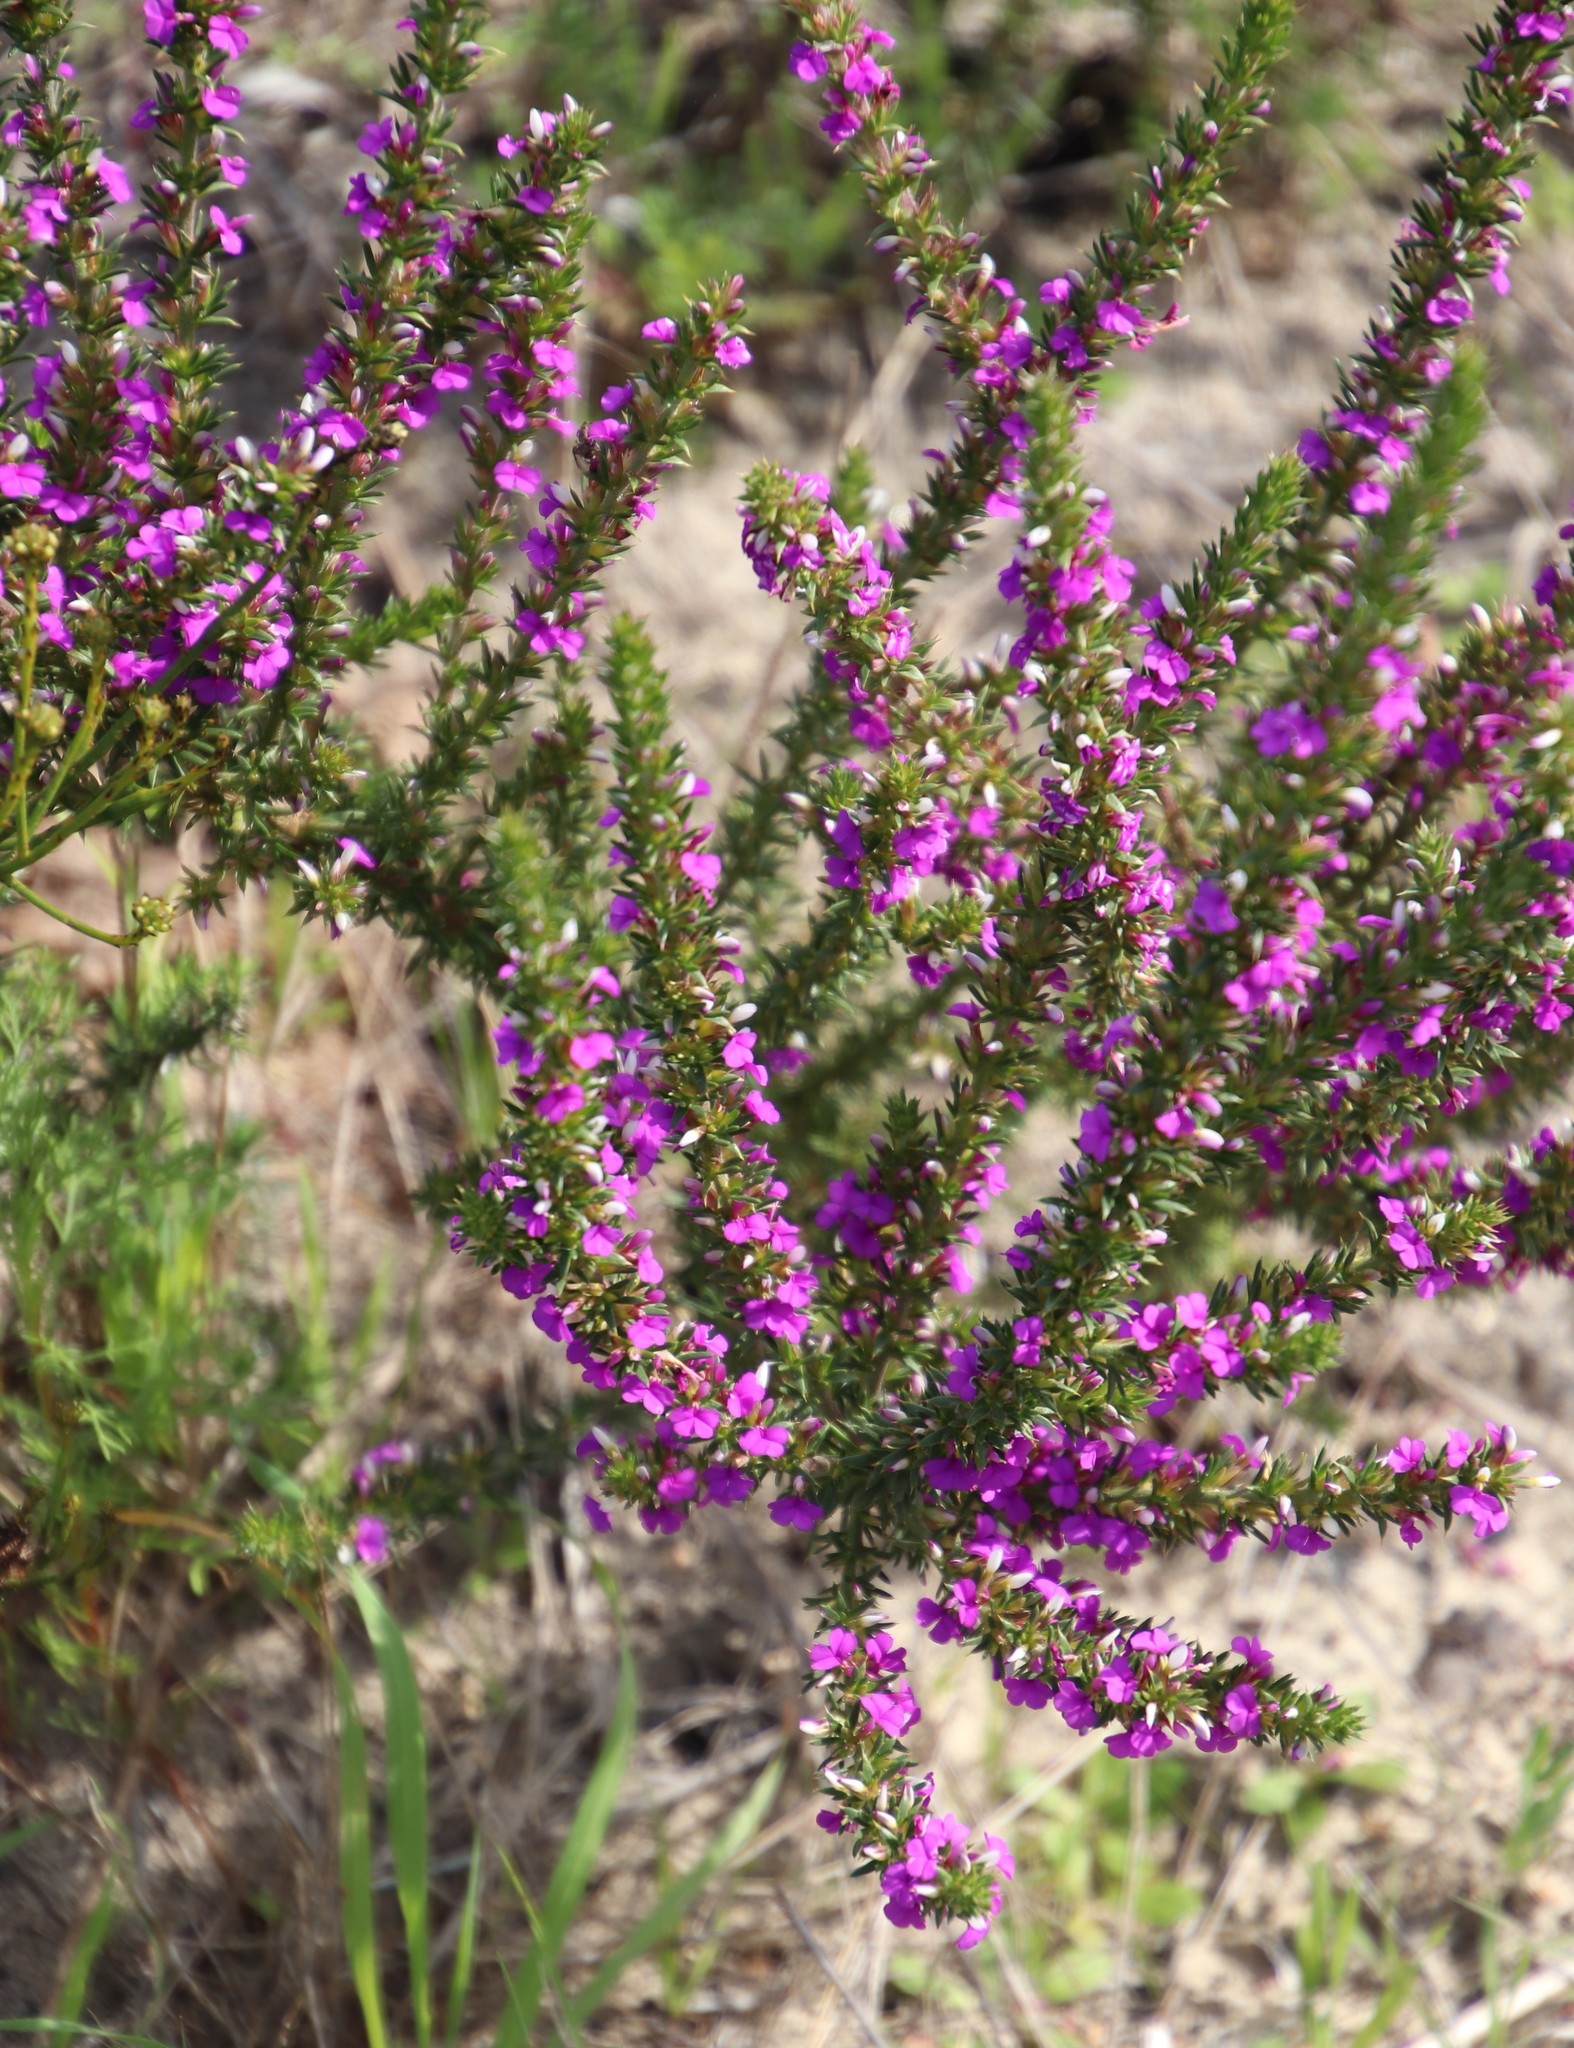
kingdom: Plantae
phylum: Tracheophyta
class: Magnoliopsida
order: Fabales
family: Polygalaceae
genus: Muraltia
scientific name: Muraltia heisteria
